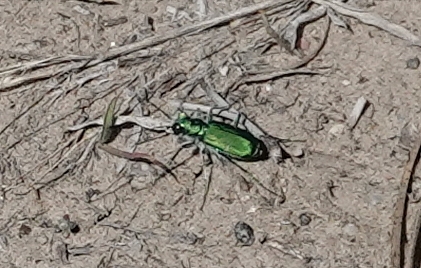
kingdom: Animalia
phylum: Arthropoda
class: Insecta
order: Coleoptera
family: Carabidae
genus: Cicindela
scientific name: Cicindela denverensis
